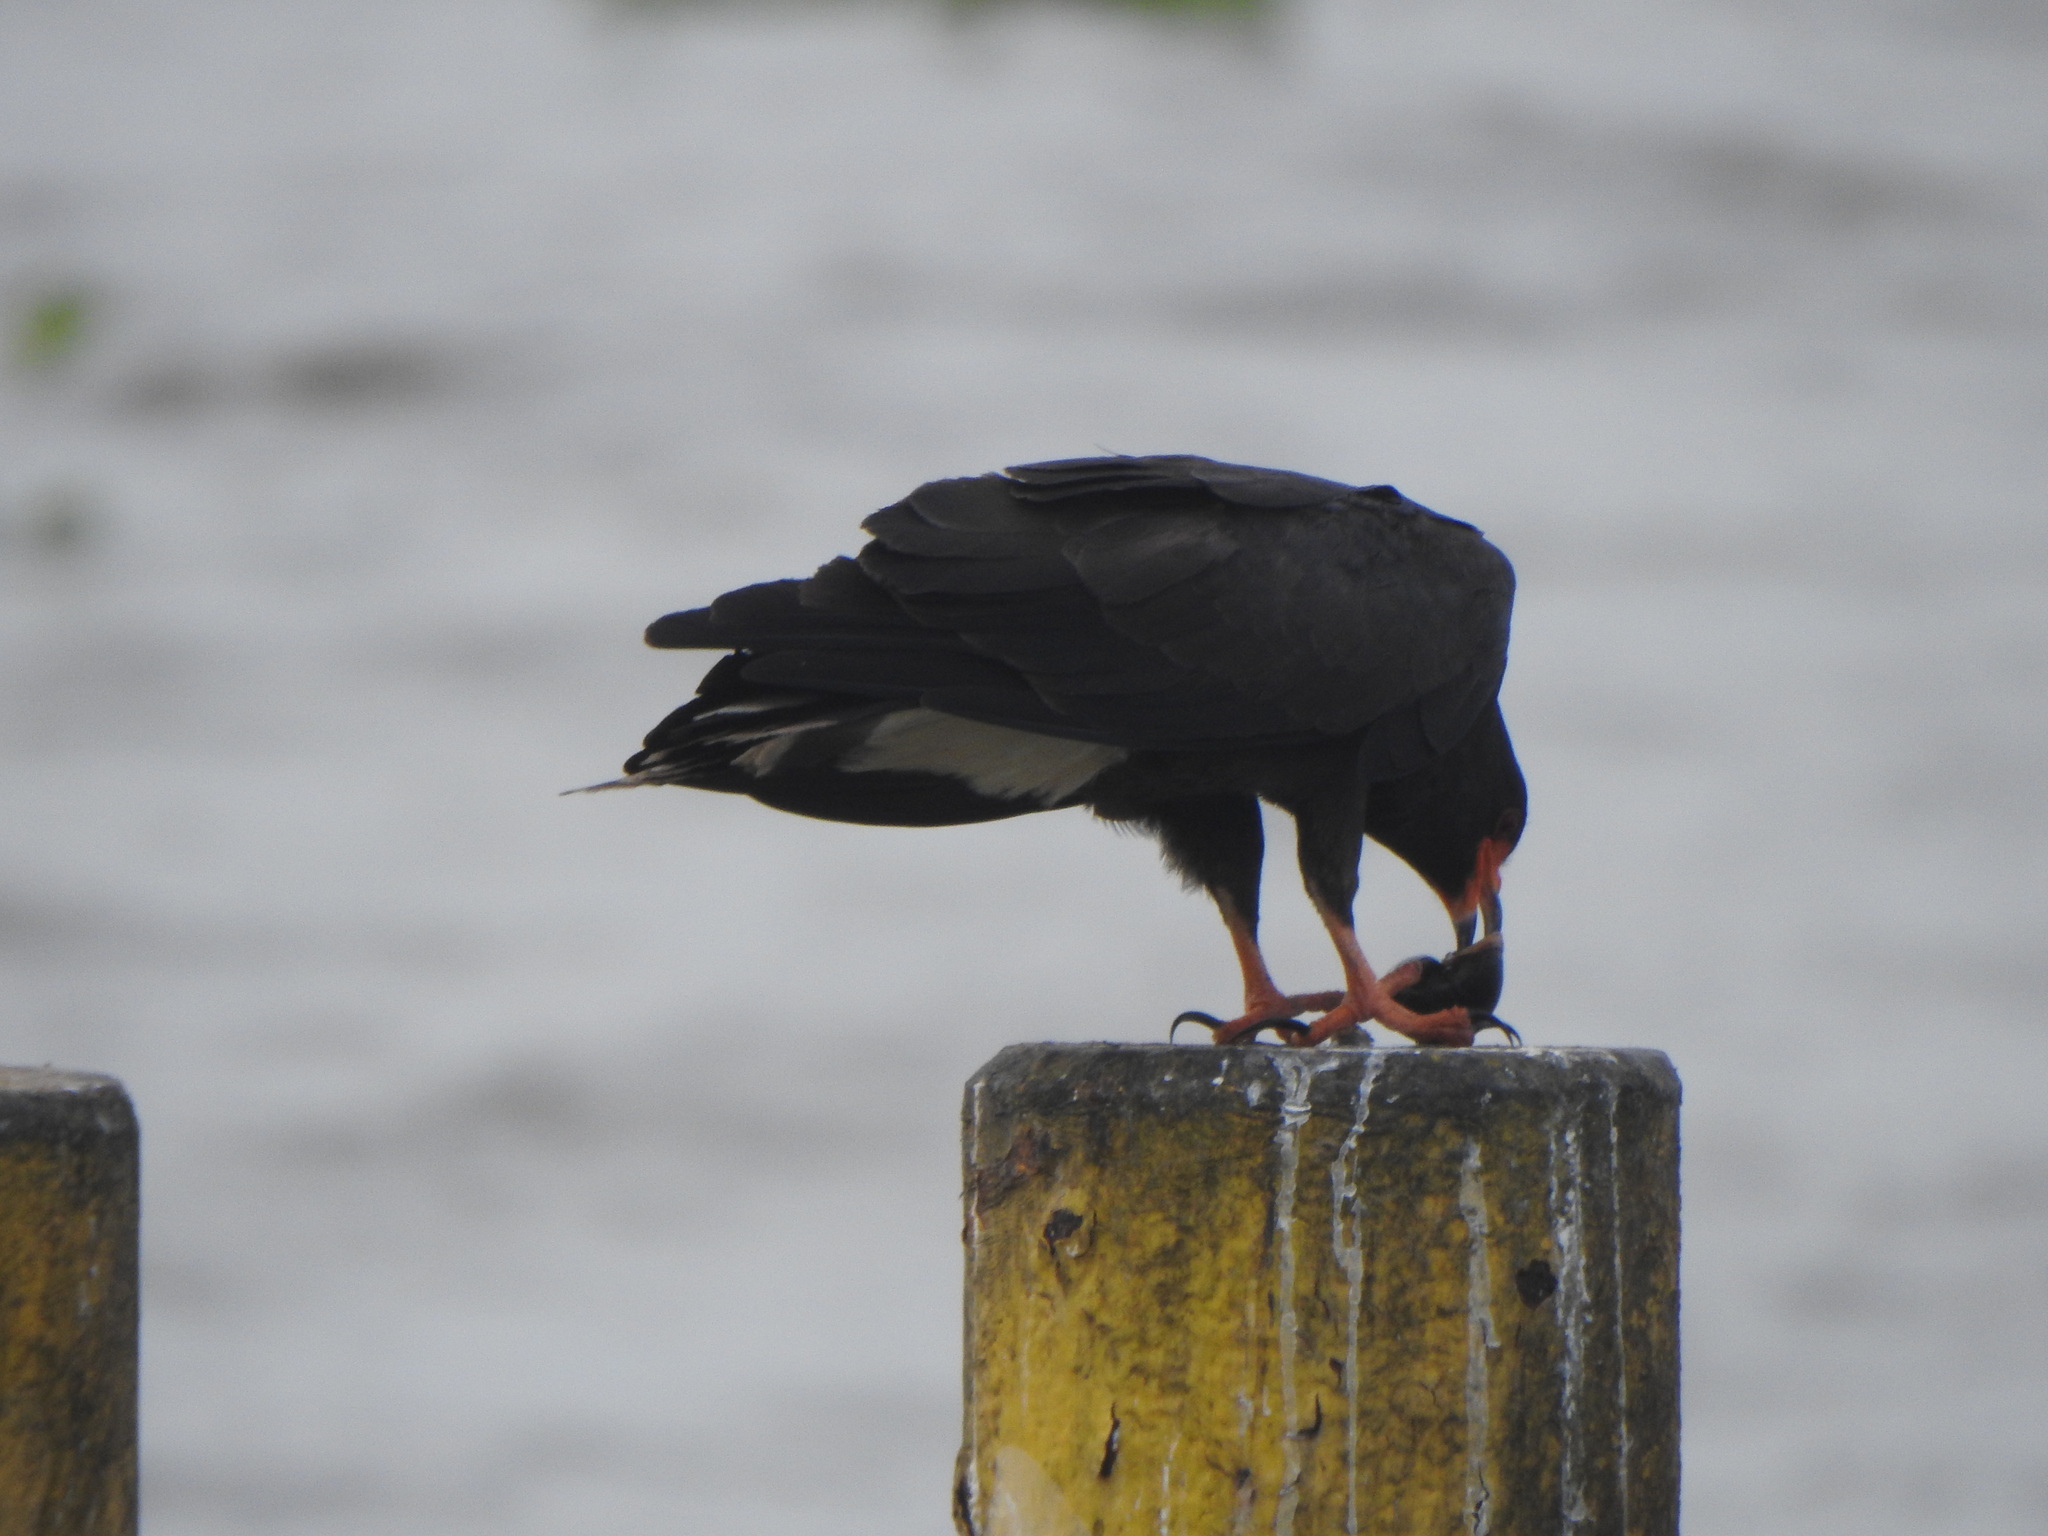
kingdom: Animalia
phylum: Chordata
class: Aves
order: Accipitriformes
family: Accipitridae
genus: Rostrhamus
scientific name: Rostrhamus sociabilis
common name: Snail kite
